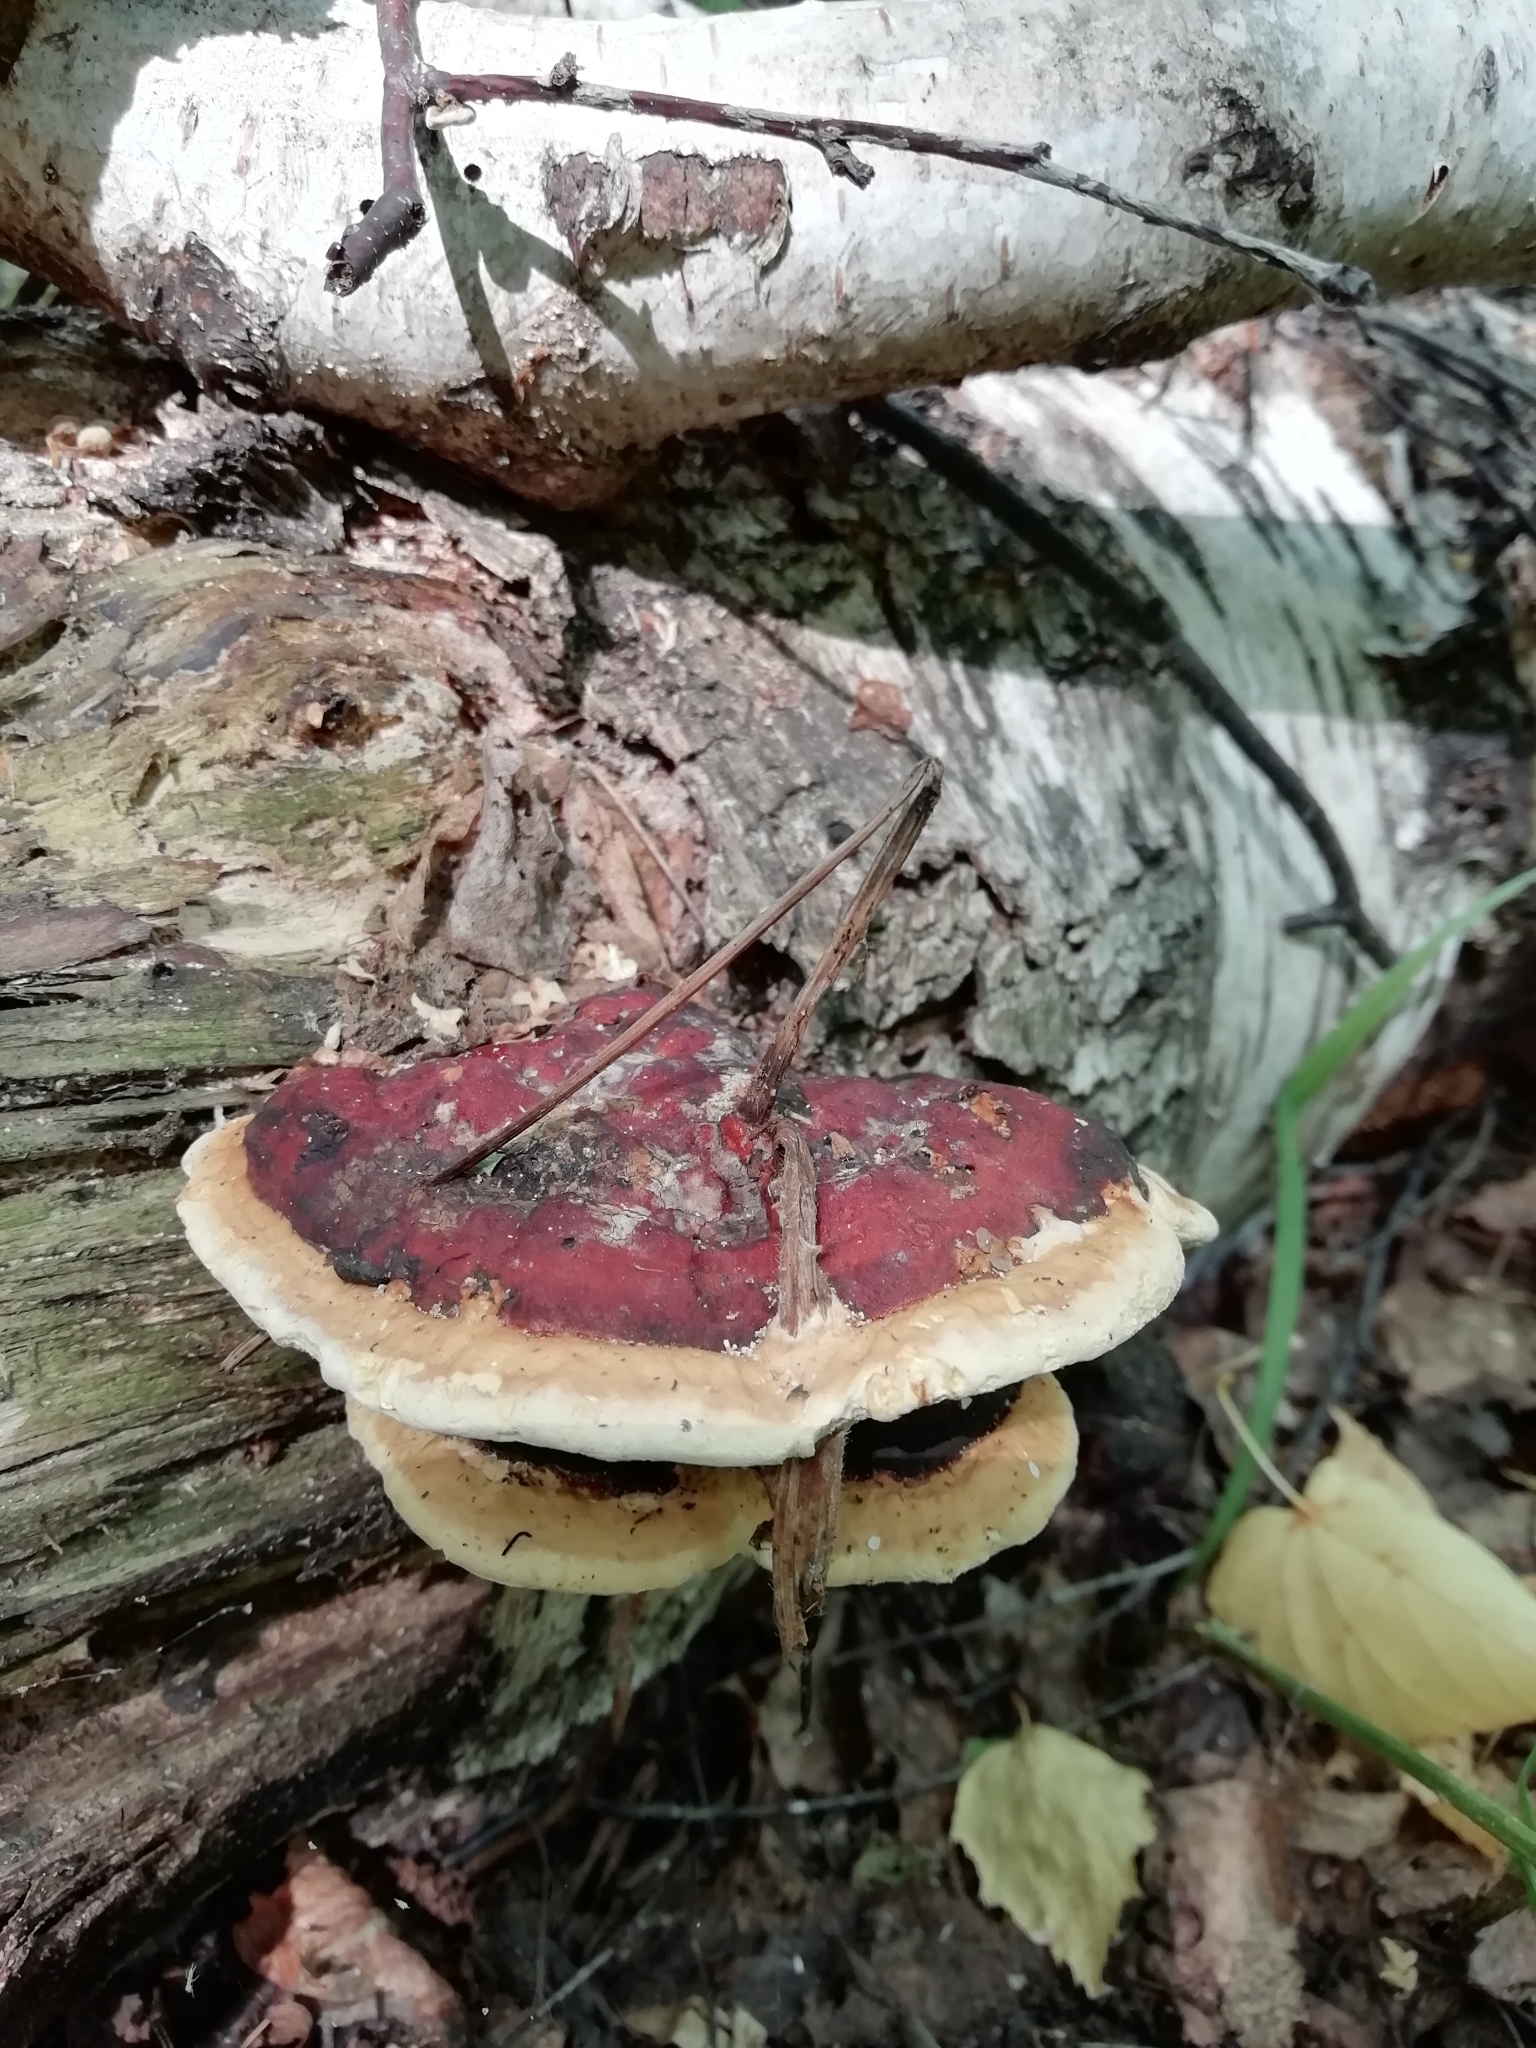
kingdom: Fungi
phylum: Basidiomycota
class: Agaricomycetes
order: Polyporales
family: Fomitopsidaceae
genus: Fomitopsis
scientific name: Fomitopsis pinicola
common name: Red-belted bracket
